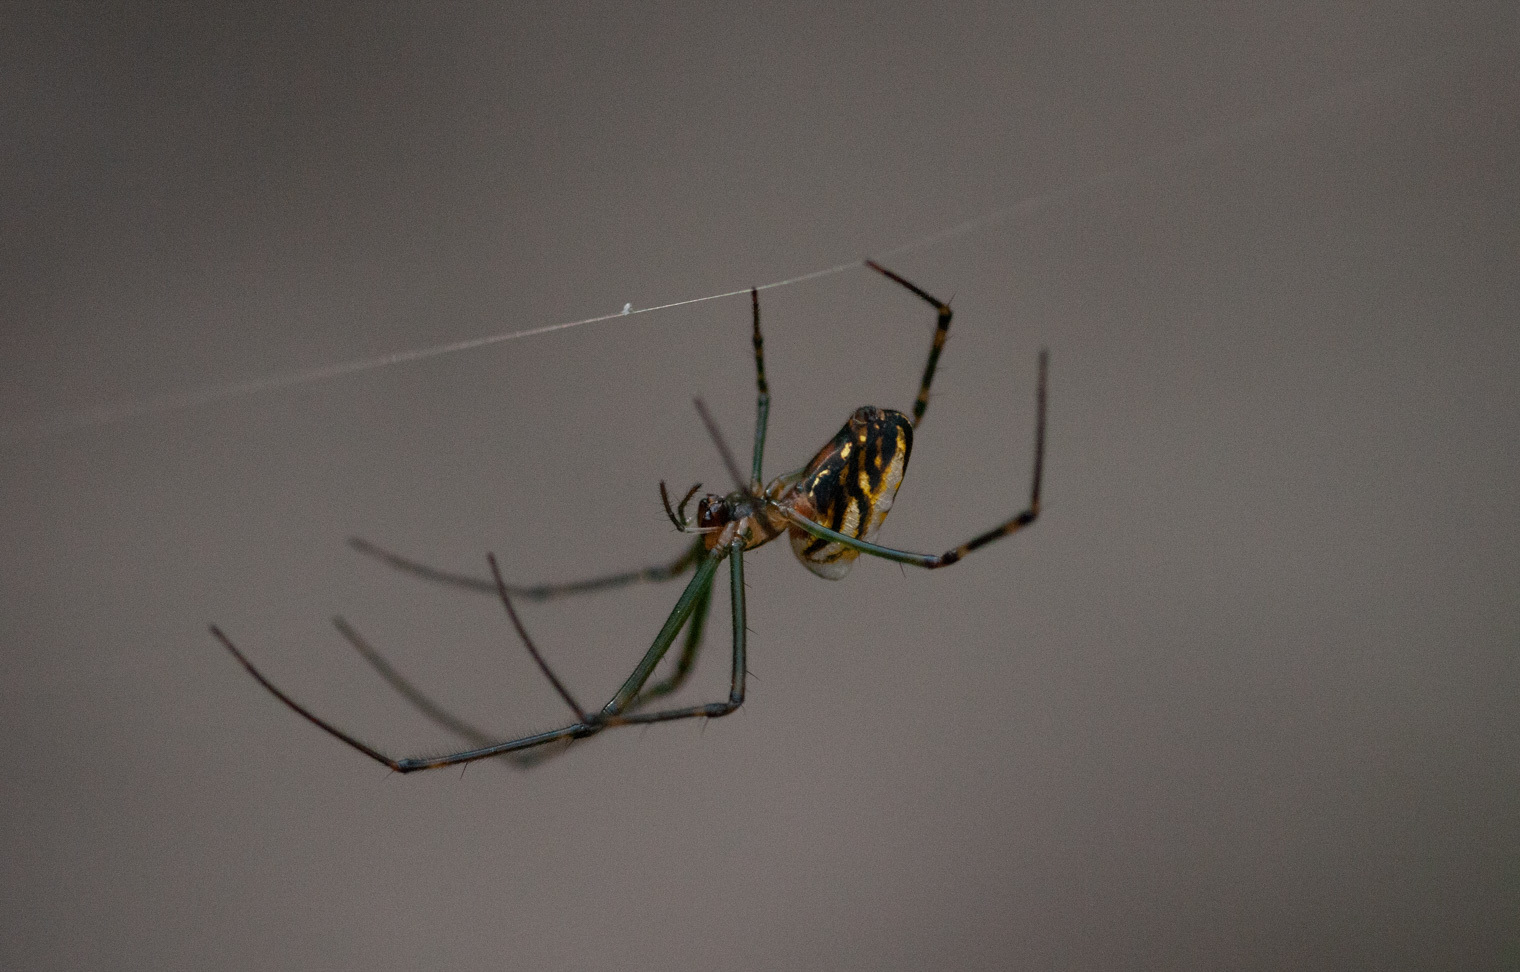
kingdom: Animalia
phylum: Arthropoda
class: Arachnida
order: Araneae
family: Tetragnathidae
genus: Leucauge
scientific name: Leucauge dromedaria
